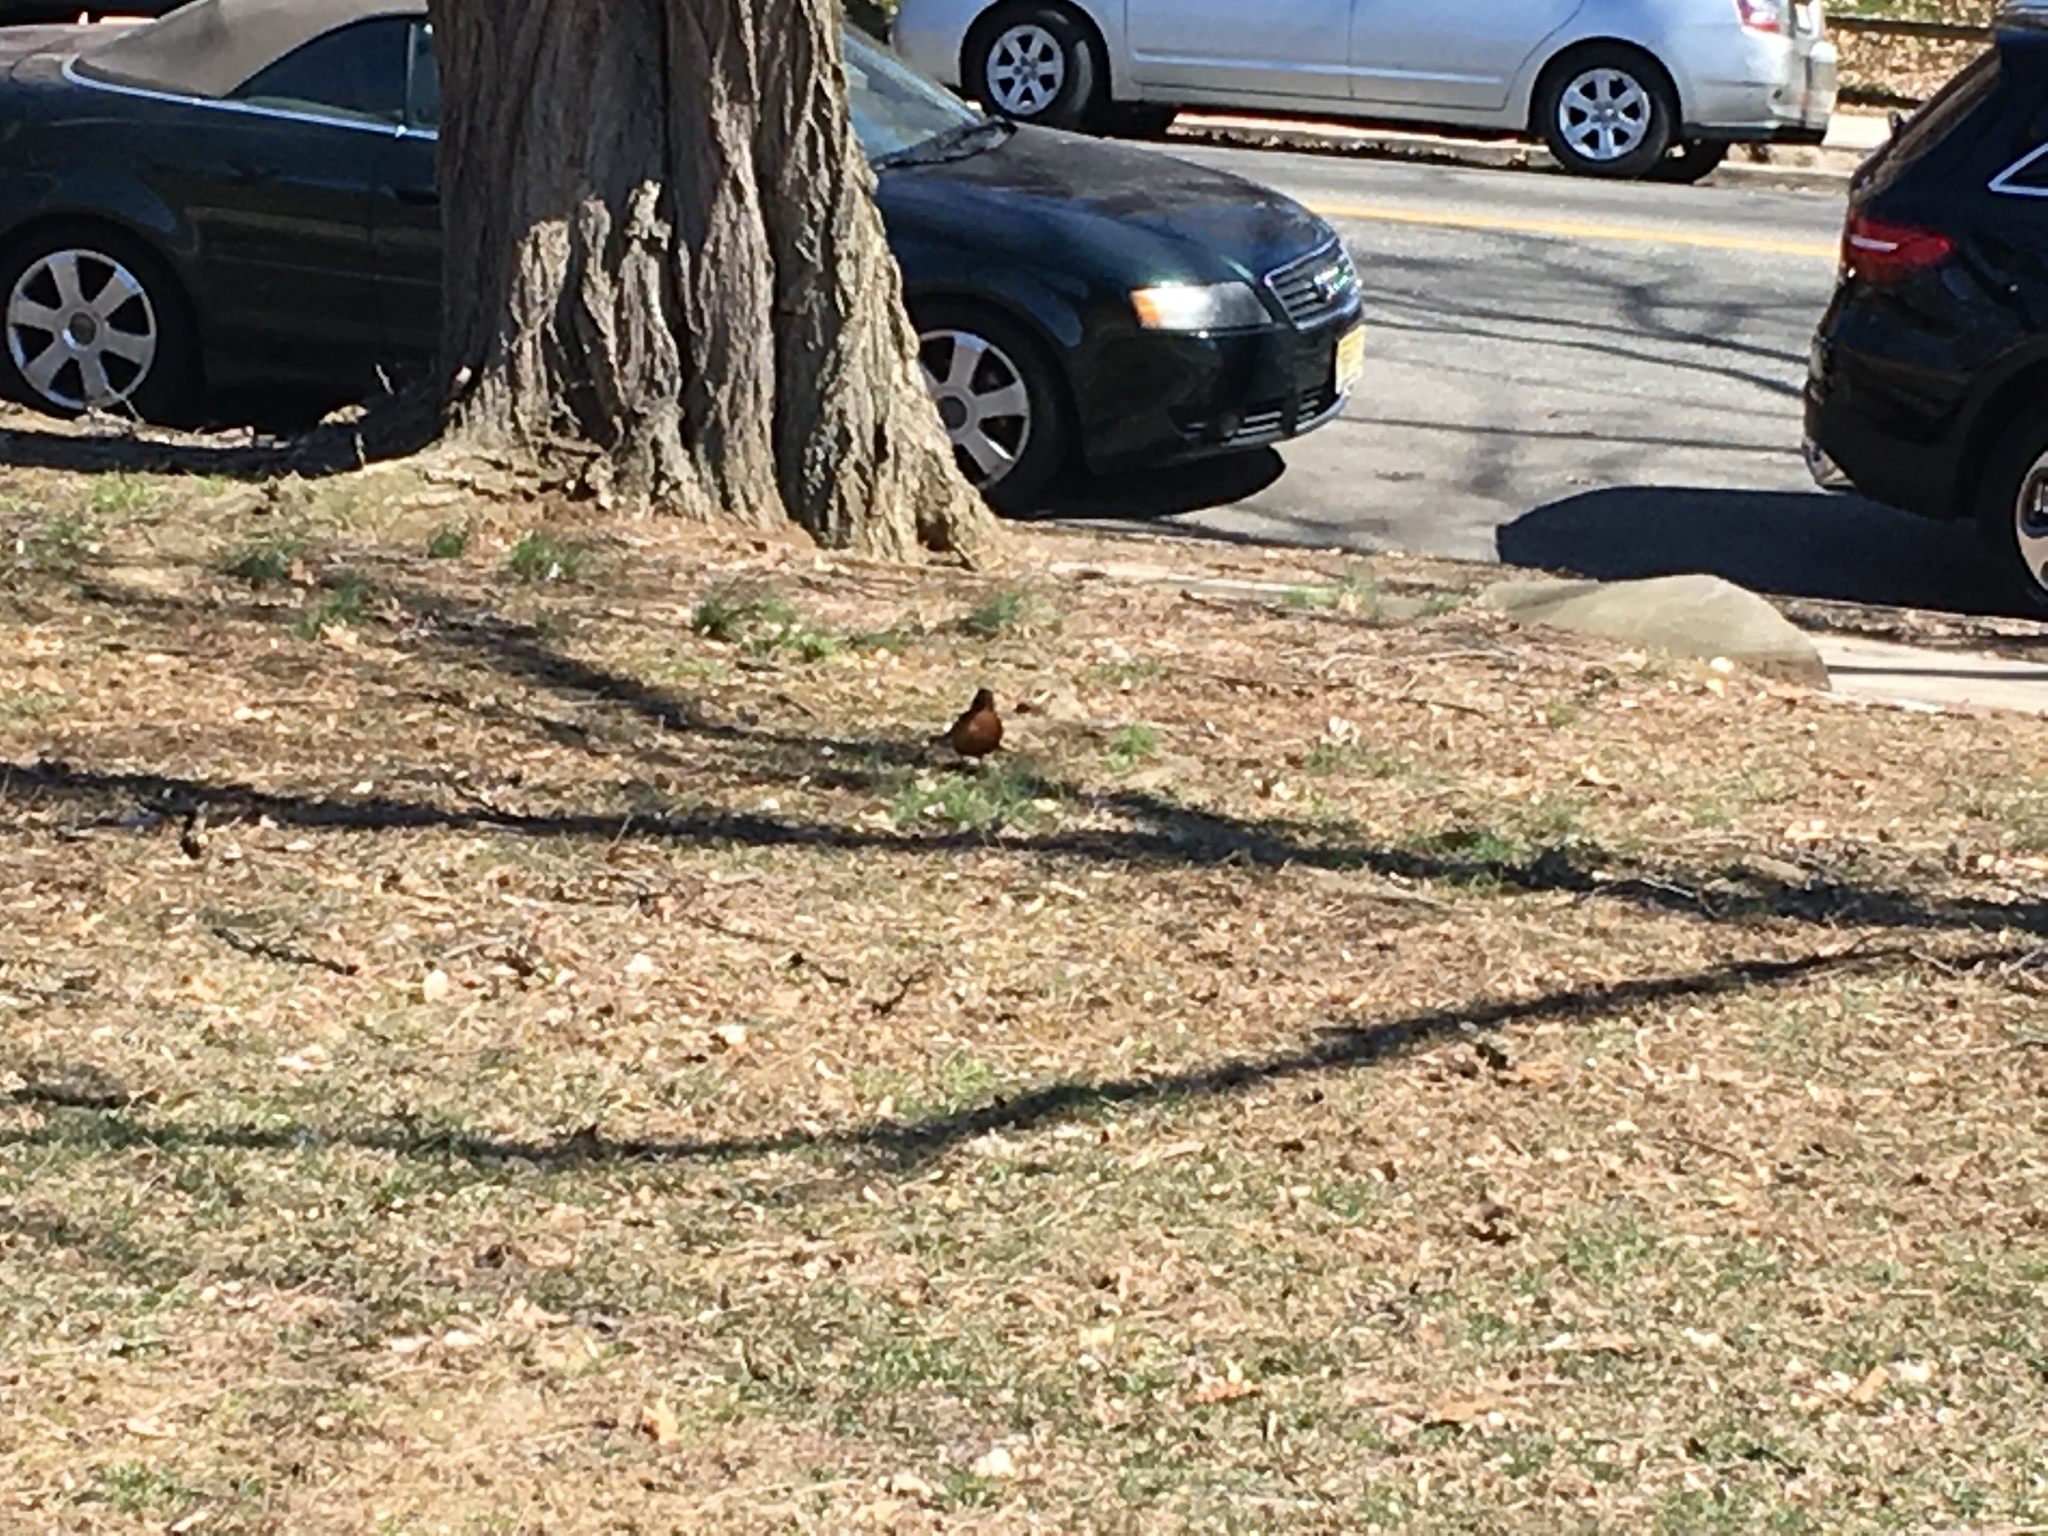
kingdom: Animalia
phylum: Chordata
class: Aves
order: Passeriformes
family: Turdidae
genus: Turdus
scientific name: Turdus migratorius
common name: American robin
